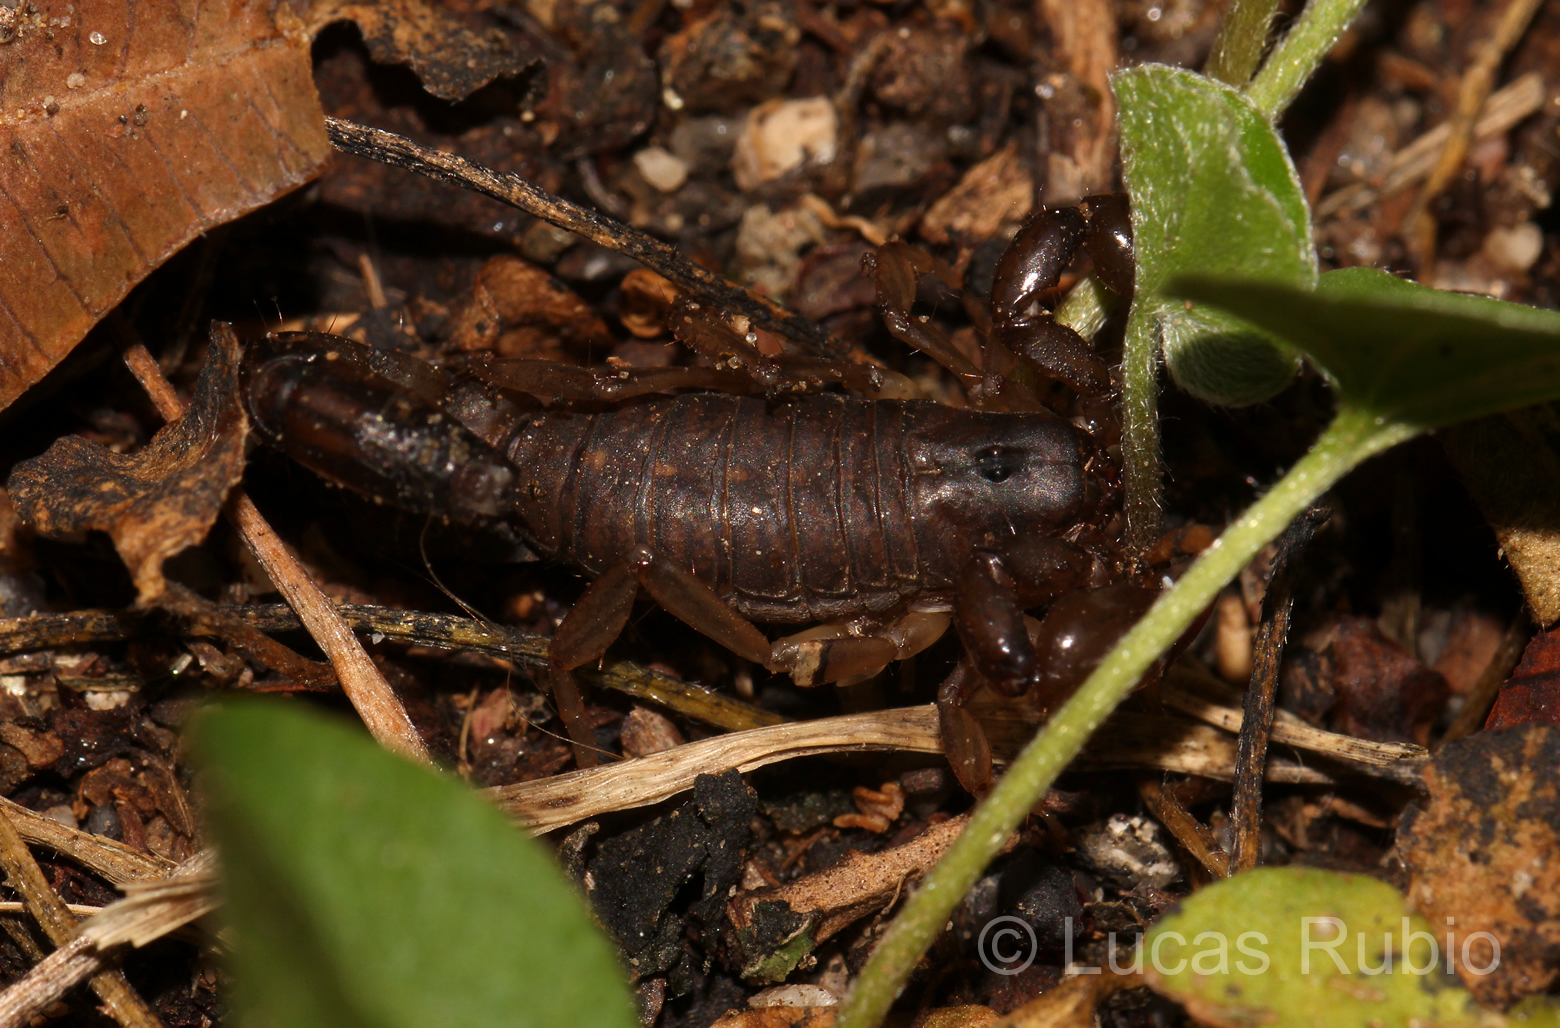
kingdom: Animalia
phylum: Arthropoda
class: Arachnida
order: Scorpiones
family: Bothriuridae
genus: Bothriurus
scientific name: Bothriurus cordubensis
